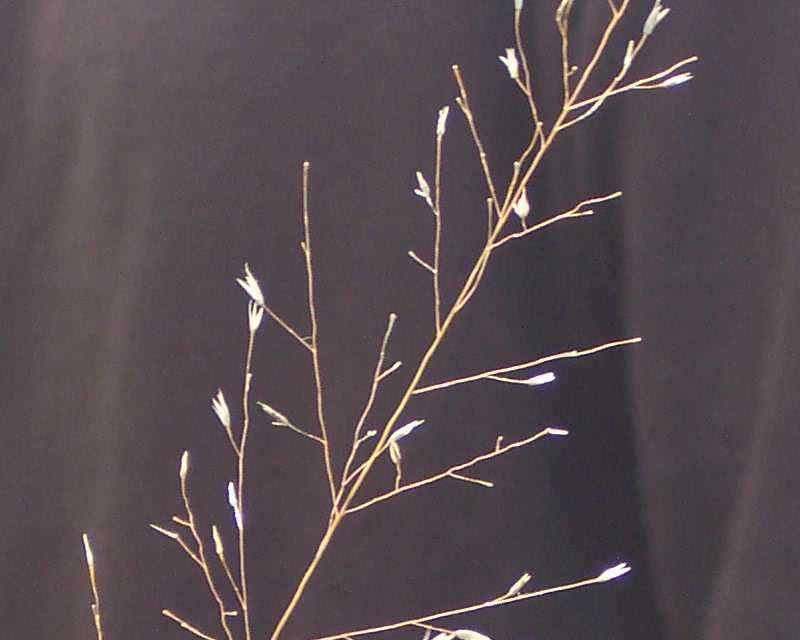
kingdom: Plantae
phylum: Tracheophyta
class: Liliopsida
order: Poales
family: Poaceae
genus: Panicum
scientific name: Panicum virgatum
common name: Switchgrass
